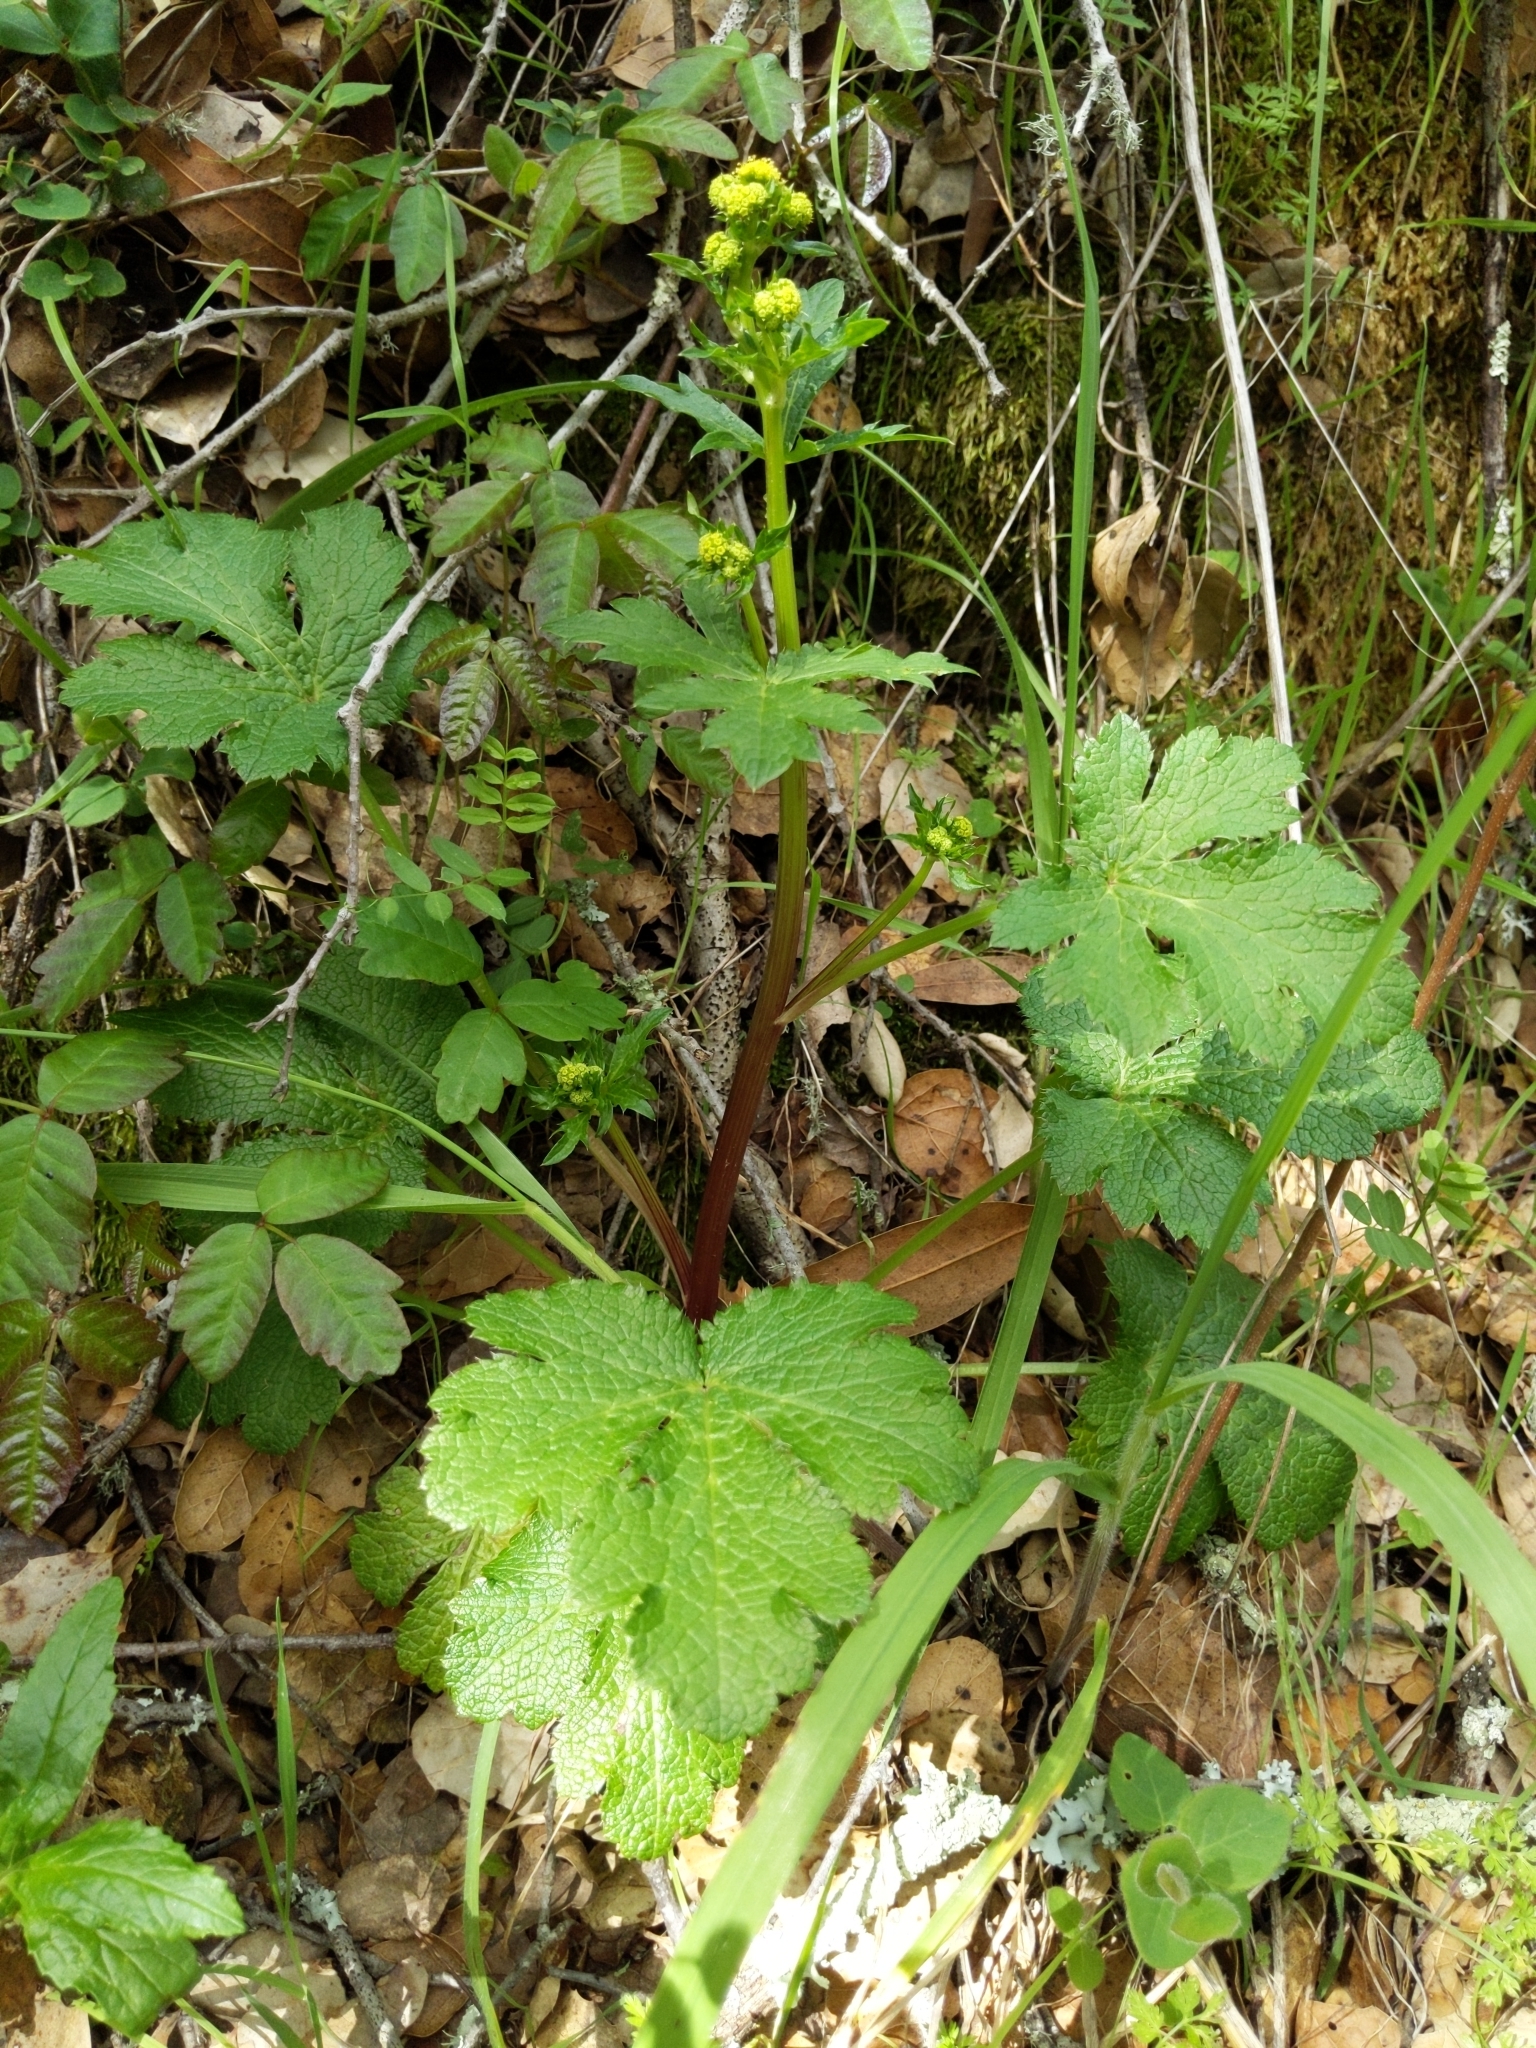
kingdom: Plantae
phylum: Tracheophyta
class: Magnoliopsida
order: Apiales
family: Apiaceae
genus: Sanicula
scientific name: Sanicula crassicaulis
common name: Western snakeroot
